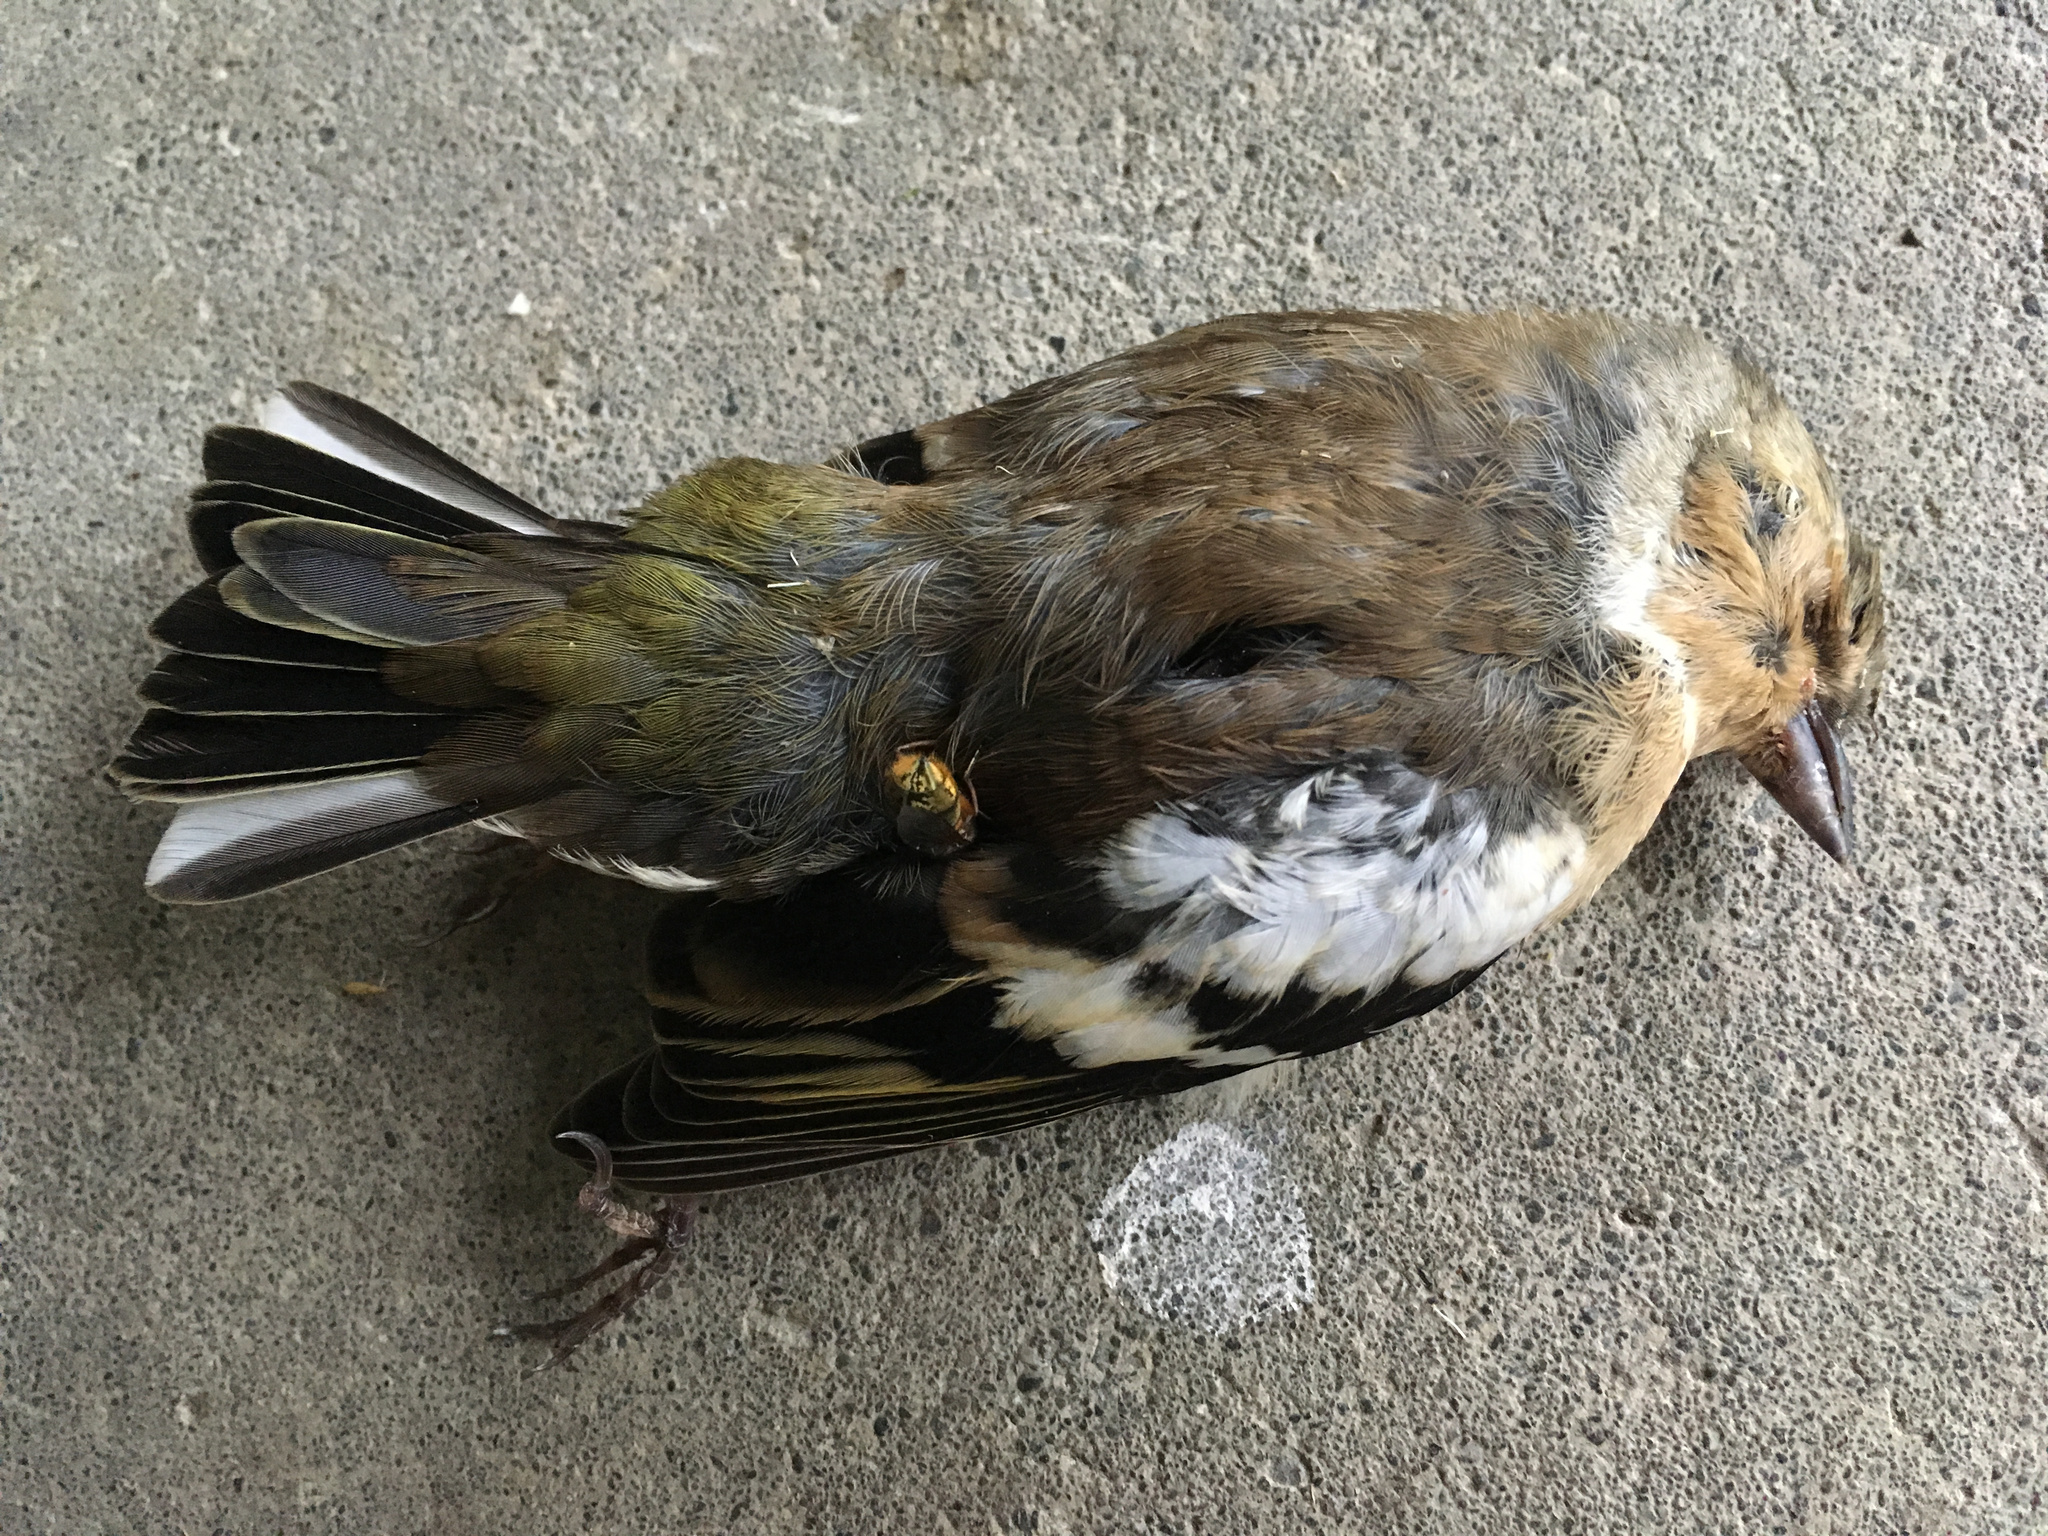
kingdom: Animalia
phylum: Chordata
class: Aves
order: Passeriformes
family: Fringillidae
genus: Fringilla
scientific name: Fringilla coelebs
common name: Common chaffinch
